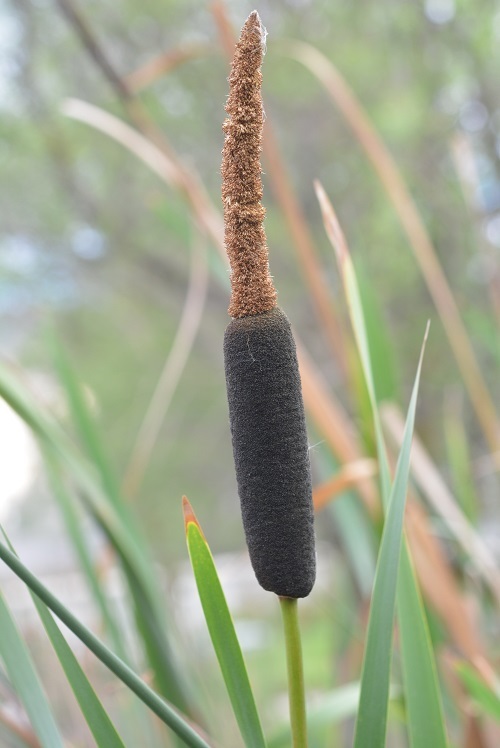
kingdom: Plantae
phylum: Tracheophyta
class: Liliopsida
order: Poales
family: Typhaceae
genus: Typha
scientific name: Typha latifolia
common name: Broadleaf cattail
